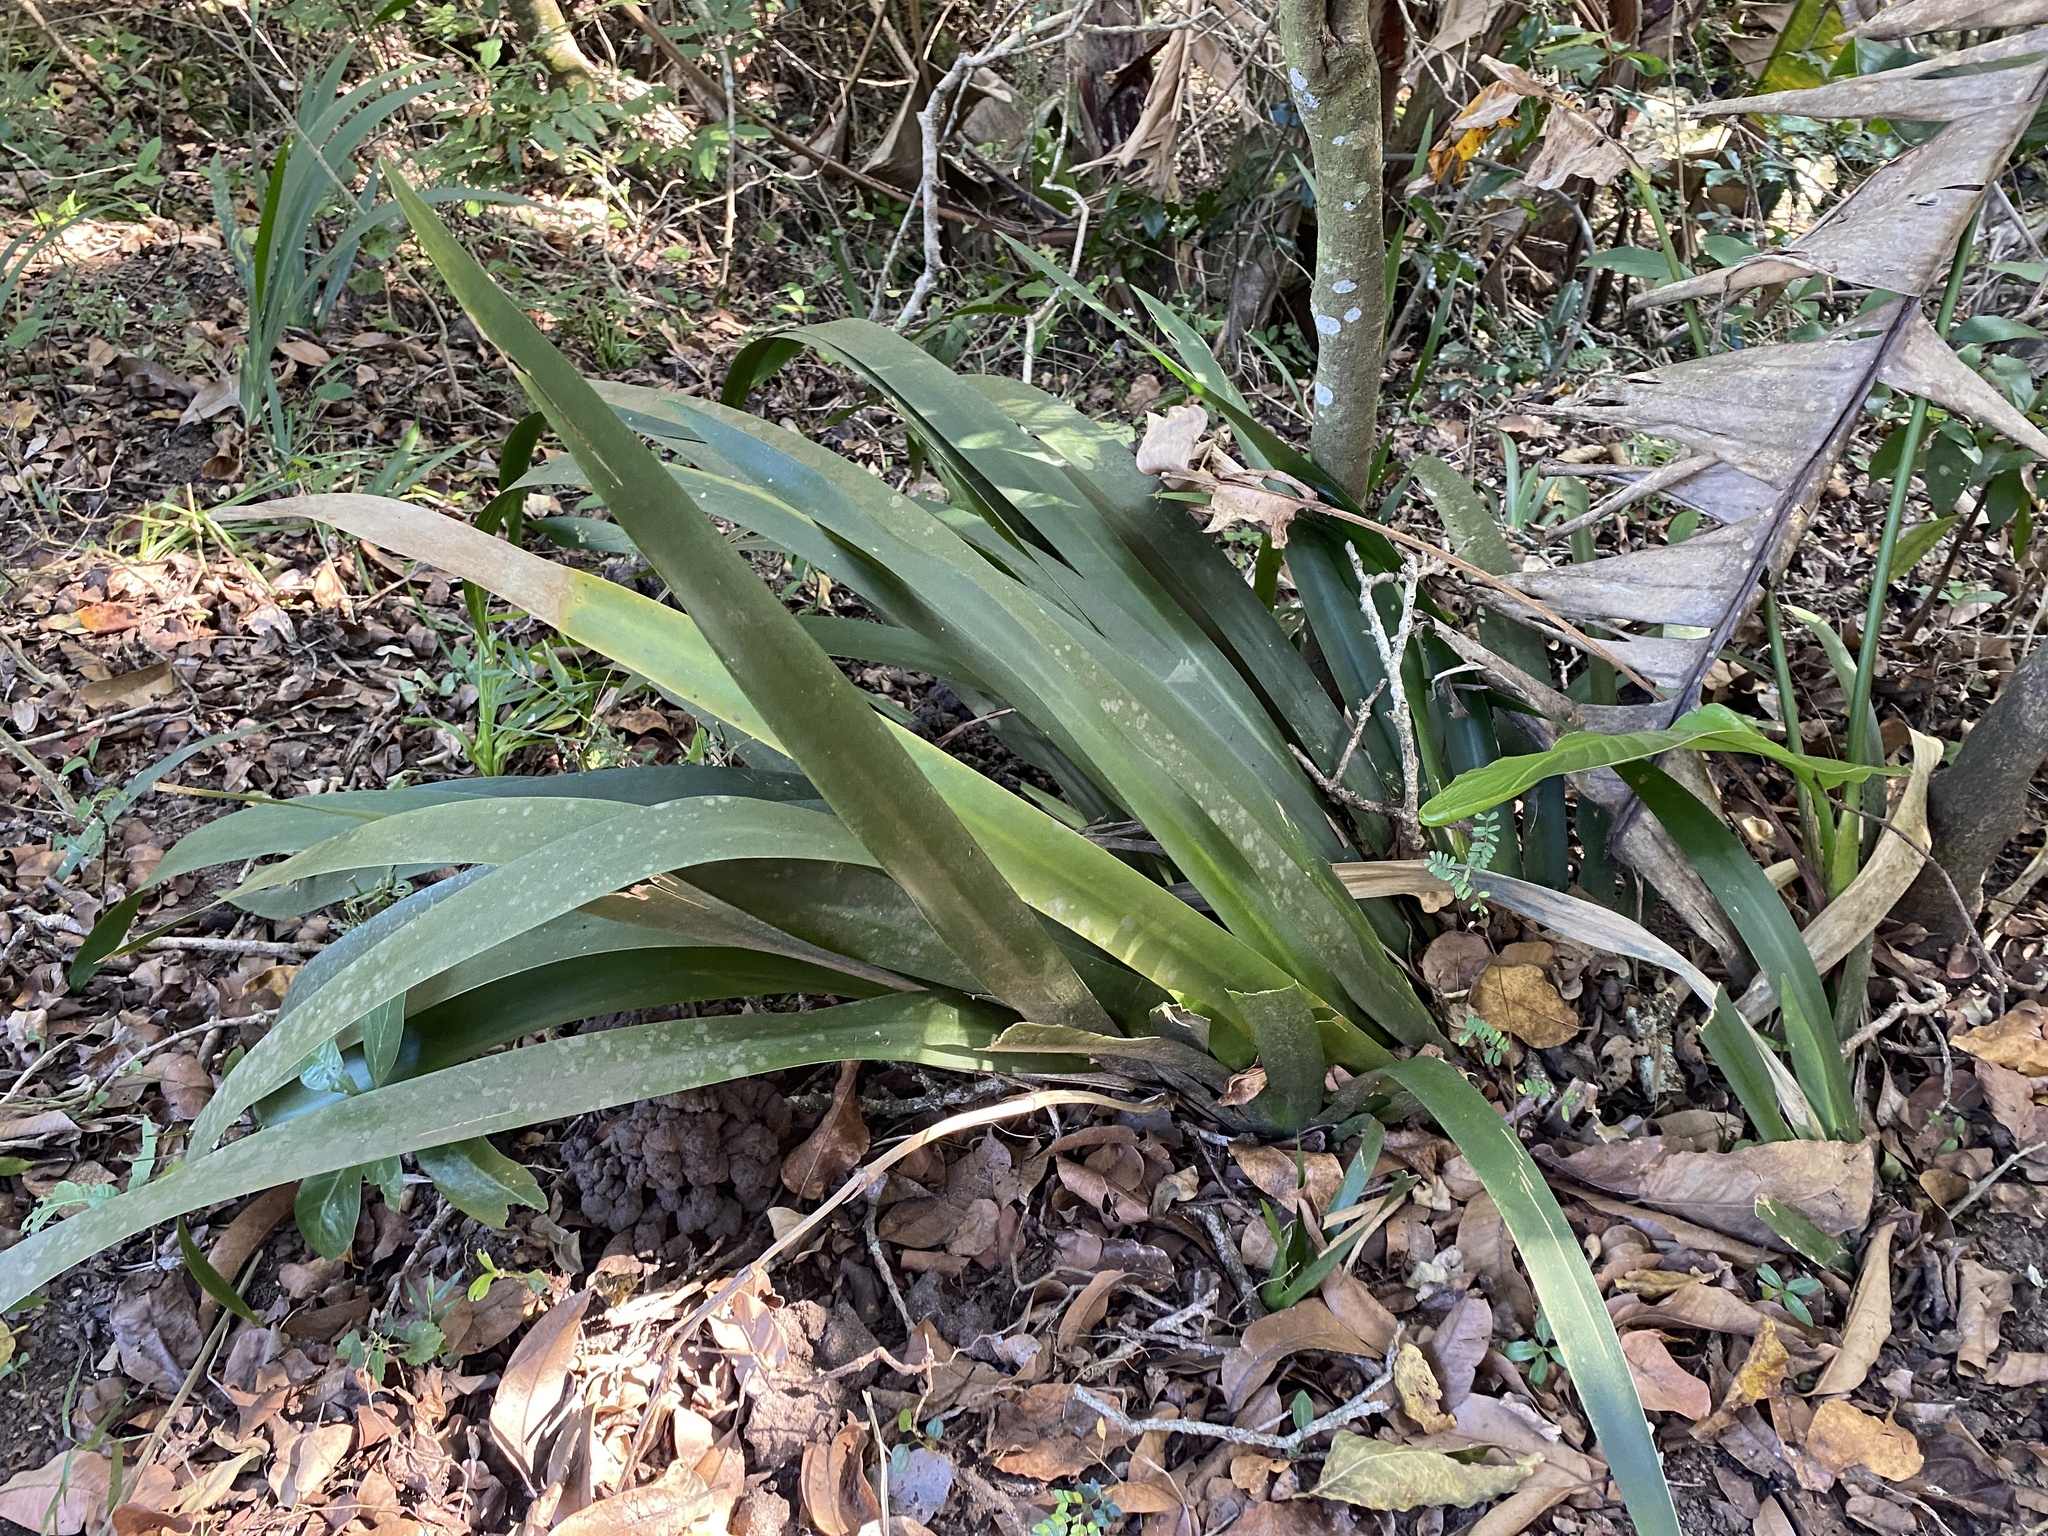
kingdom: Plantae
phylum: Tracheophyta
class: Liliopsida
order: Asparagales
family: Iridaceae
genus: Dietes
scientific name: Dietes butcheriana
